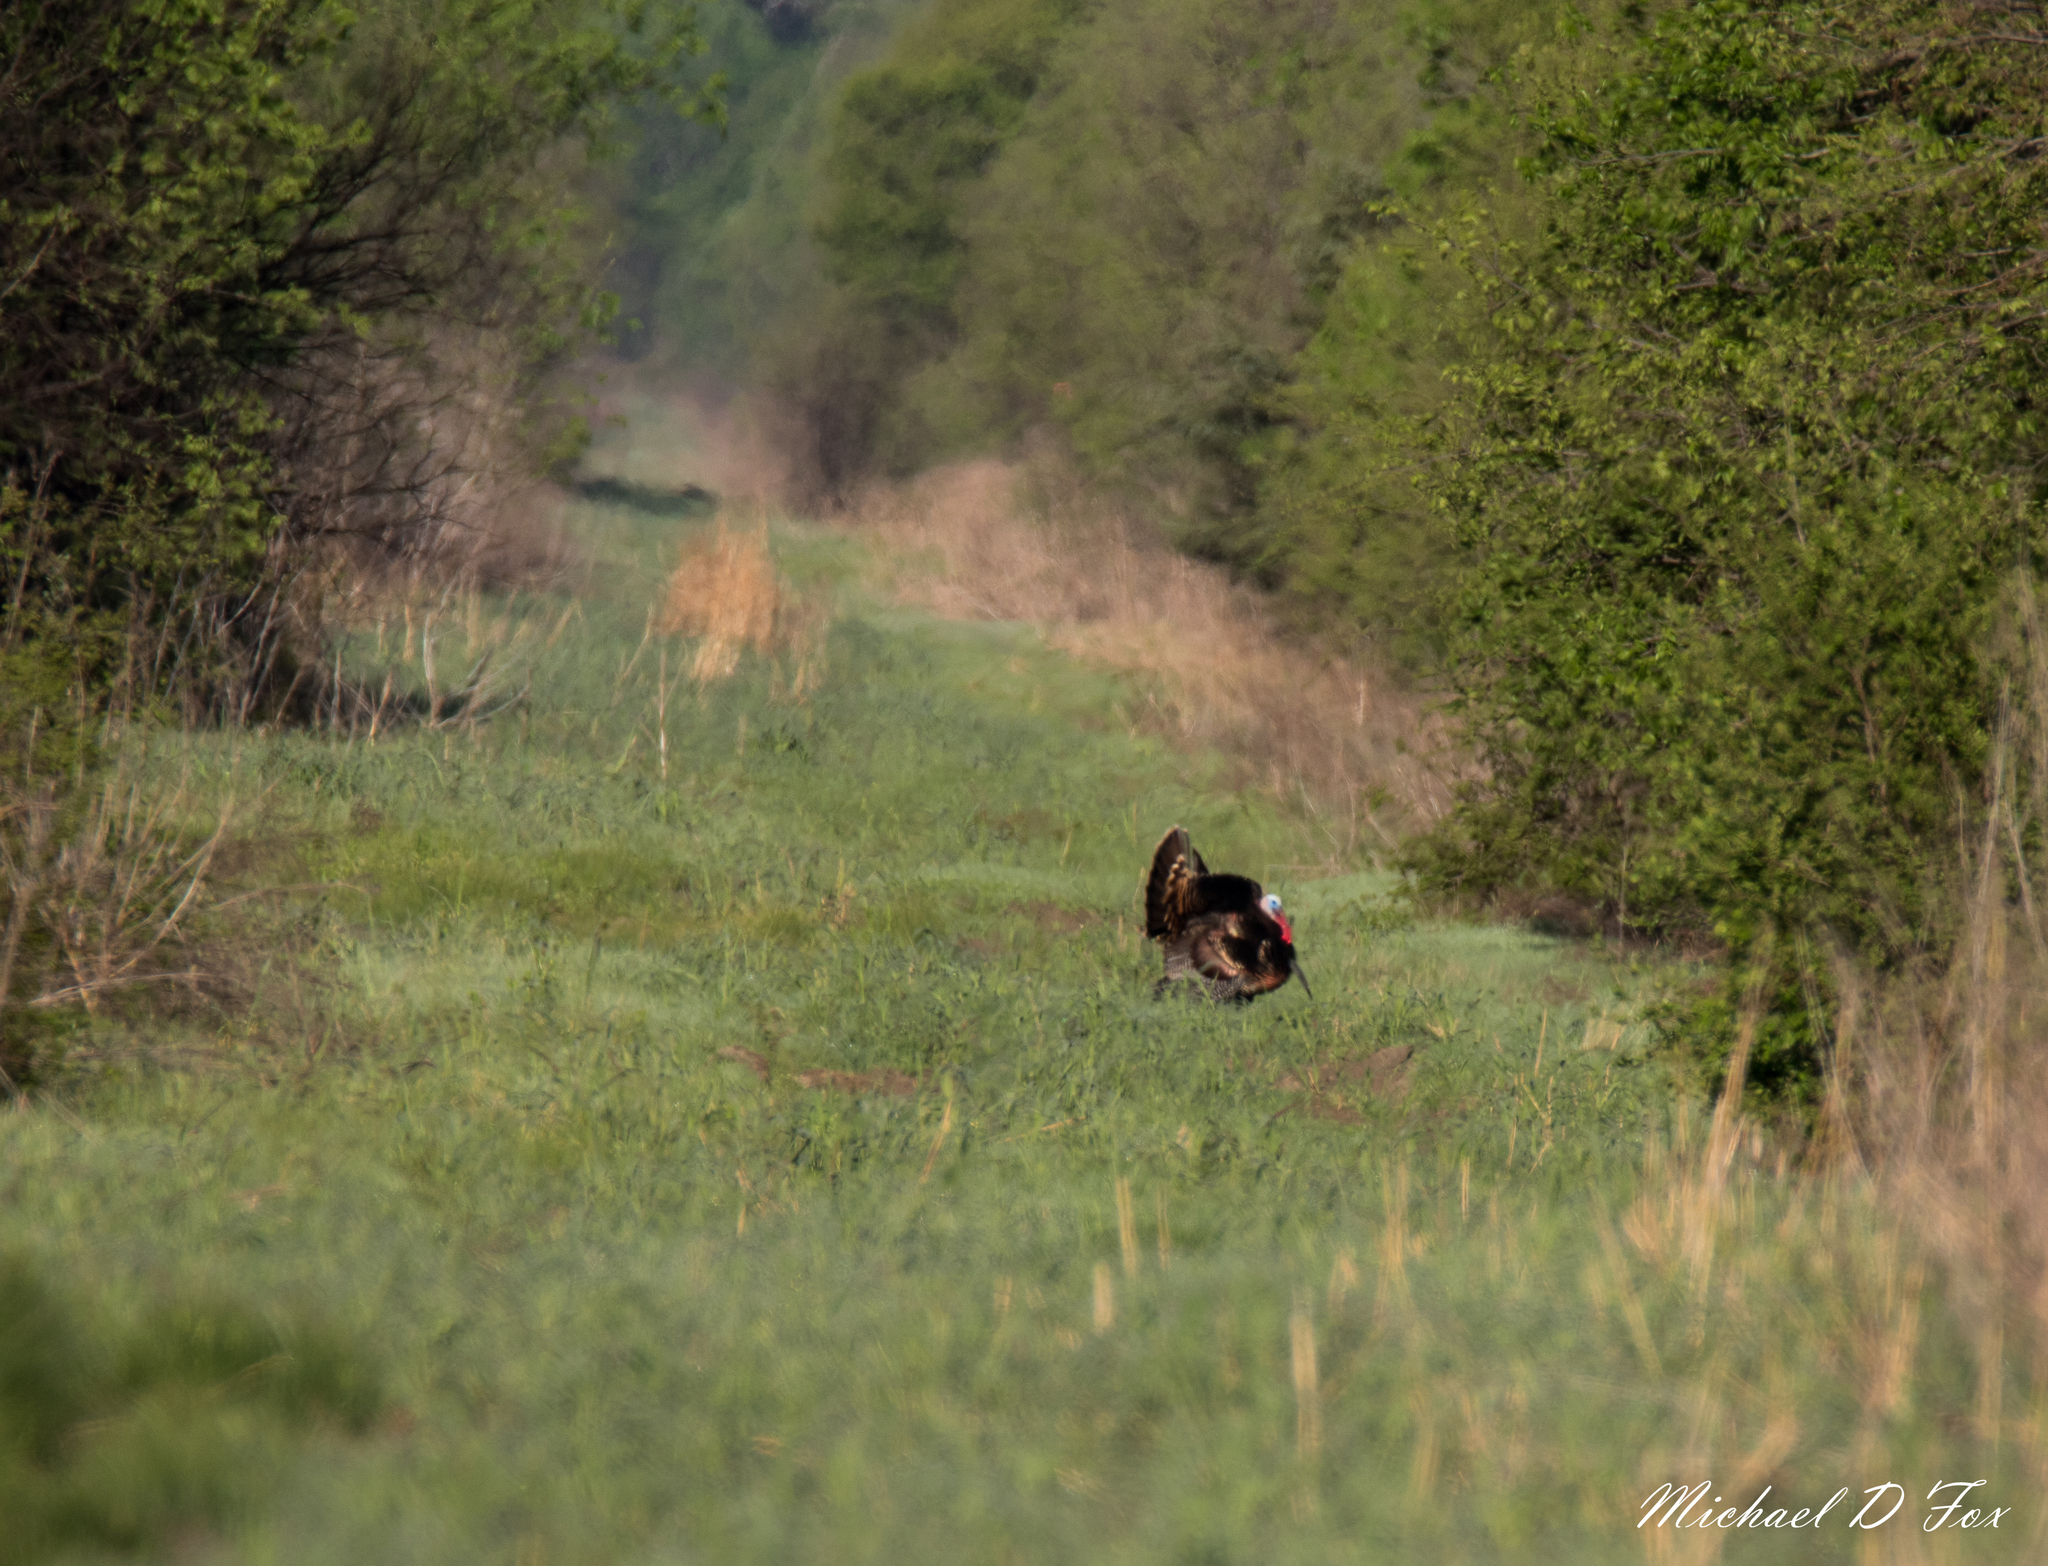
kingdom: Animalia
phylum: Chordata
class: Aves
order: Galliformes
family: Phasianidae
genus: Meleagris
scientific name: Meleagris gallopavo
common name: Wild turkey
